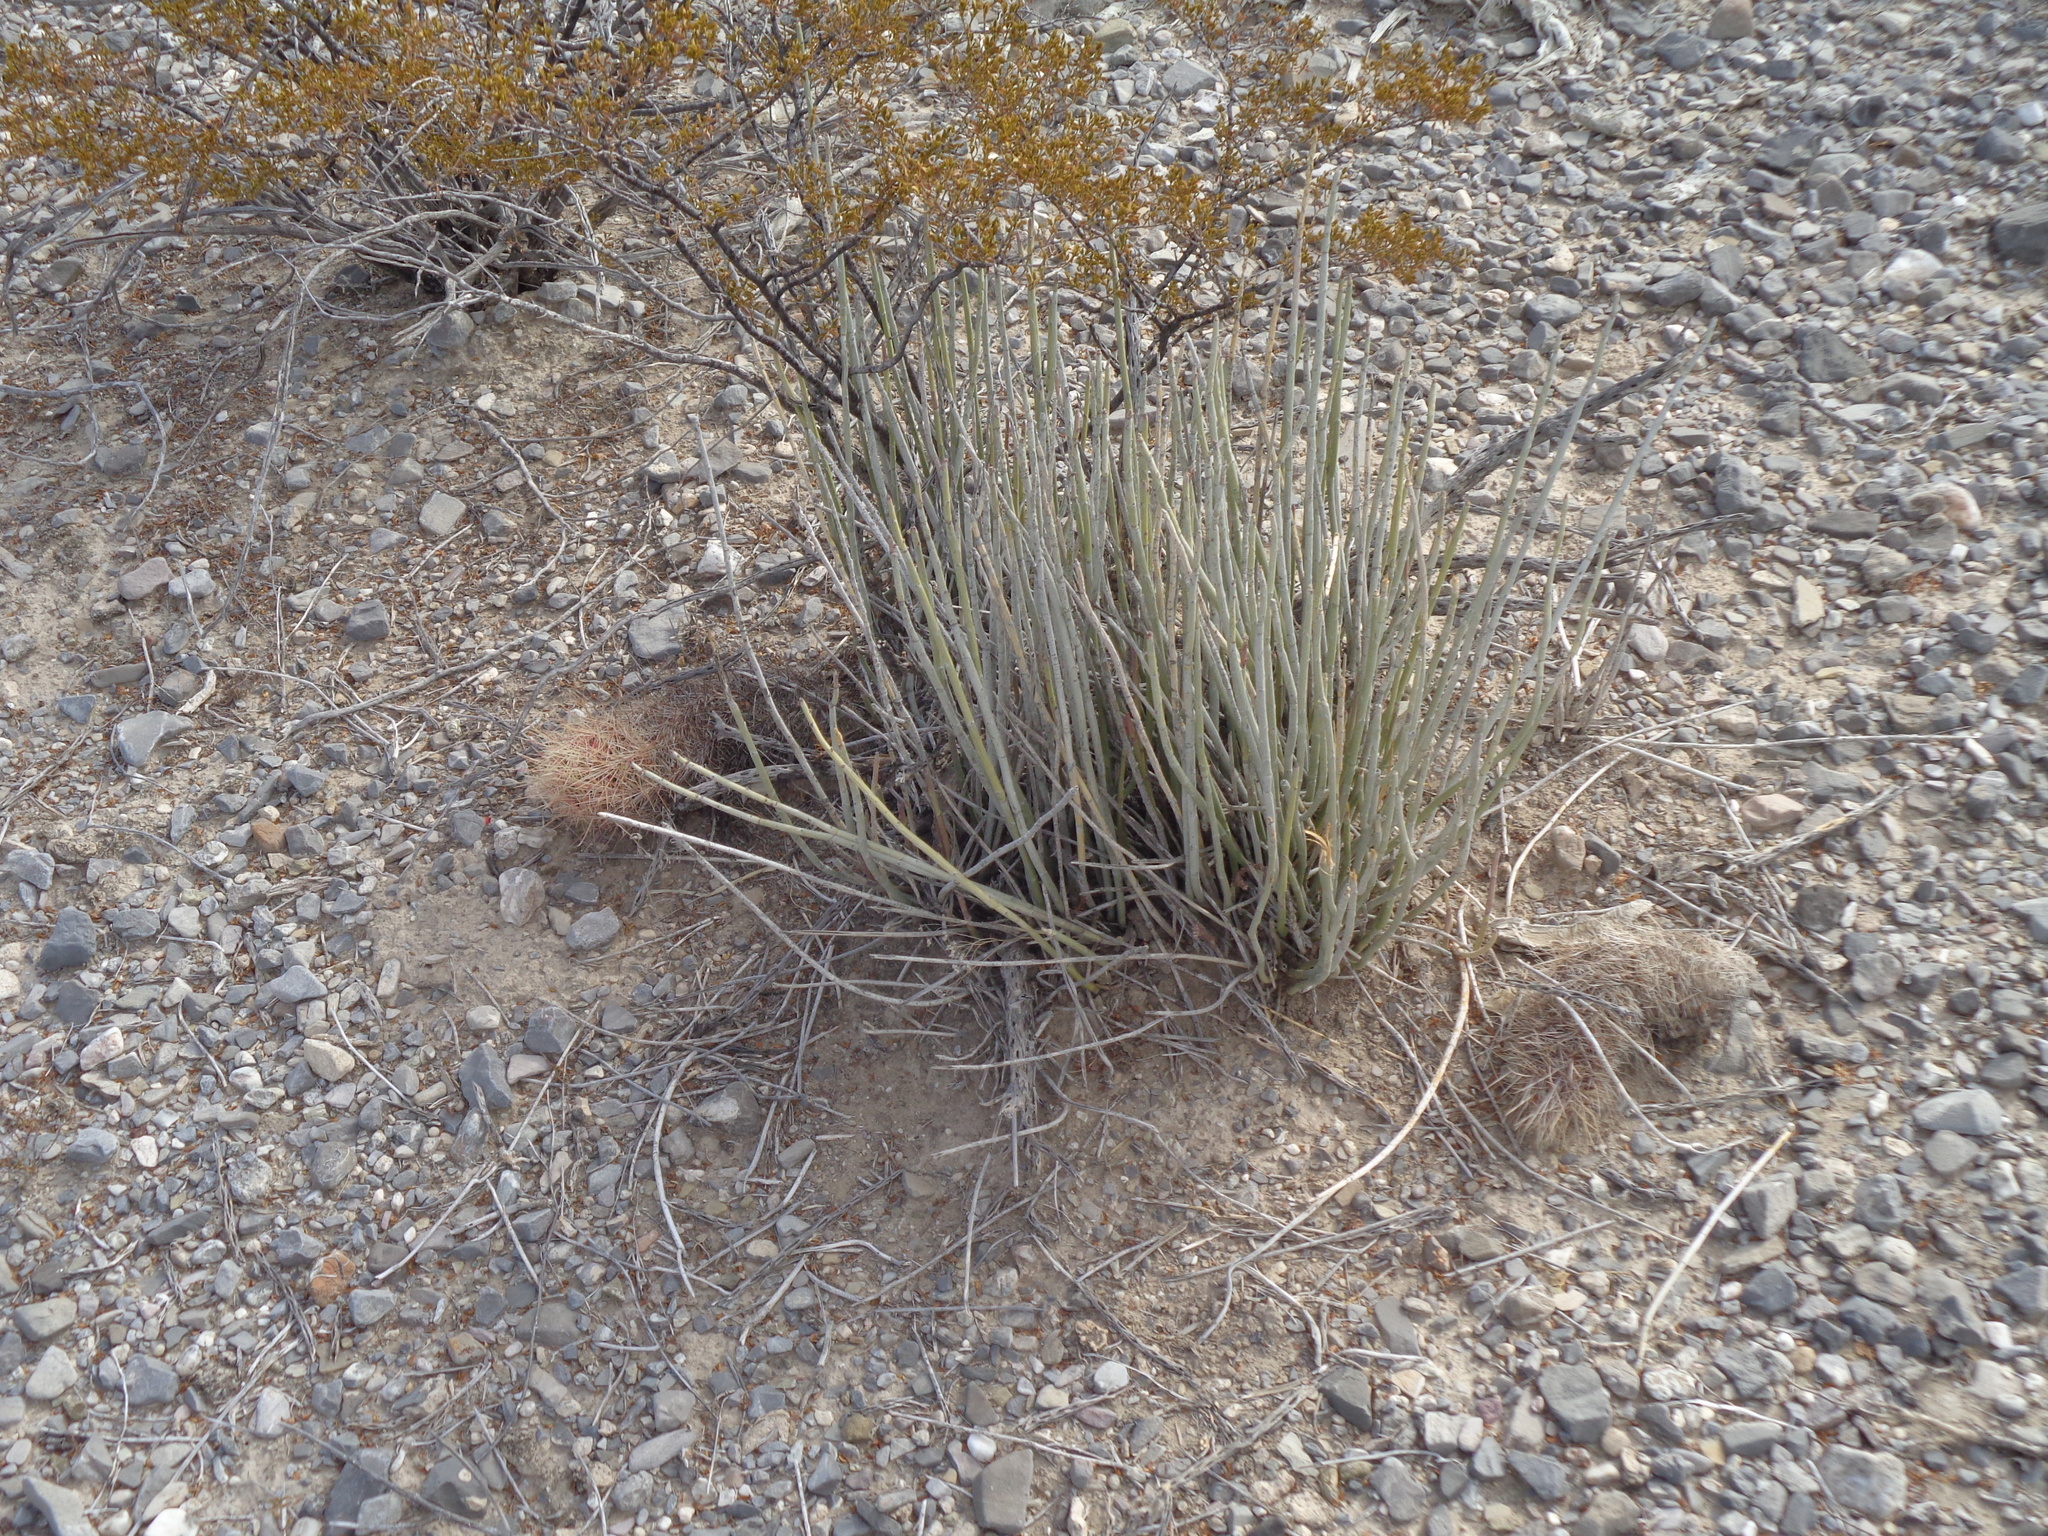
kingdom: Plantae
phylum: Tracheophyta
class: Magnoliopsida
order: Malpighiales
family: Euphorbiaceae
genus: Euphorbia
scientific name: Euphorbia antisyphilitica
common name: Candelilla
